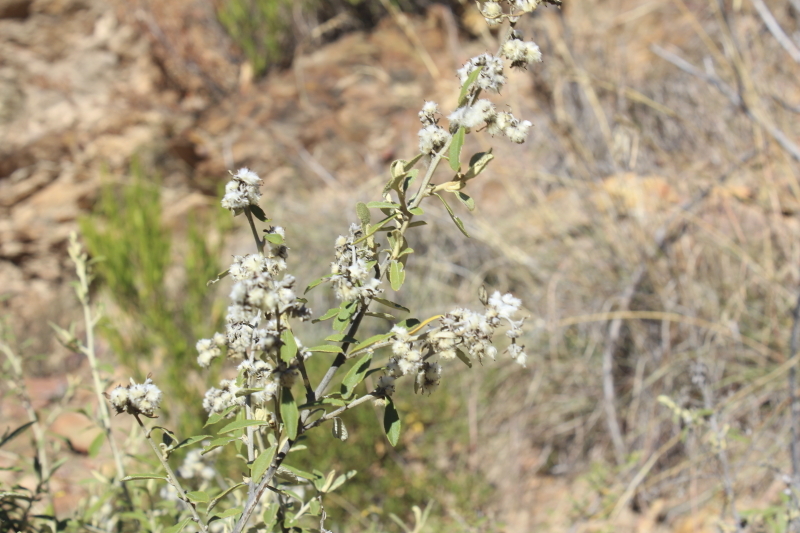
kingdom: Plantae
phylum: Tracheophyta
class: Magnoliopsida
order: Asterales
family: Asteraceae
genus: Tarchonanthus
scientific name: Tarchonanthus littoralis
